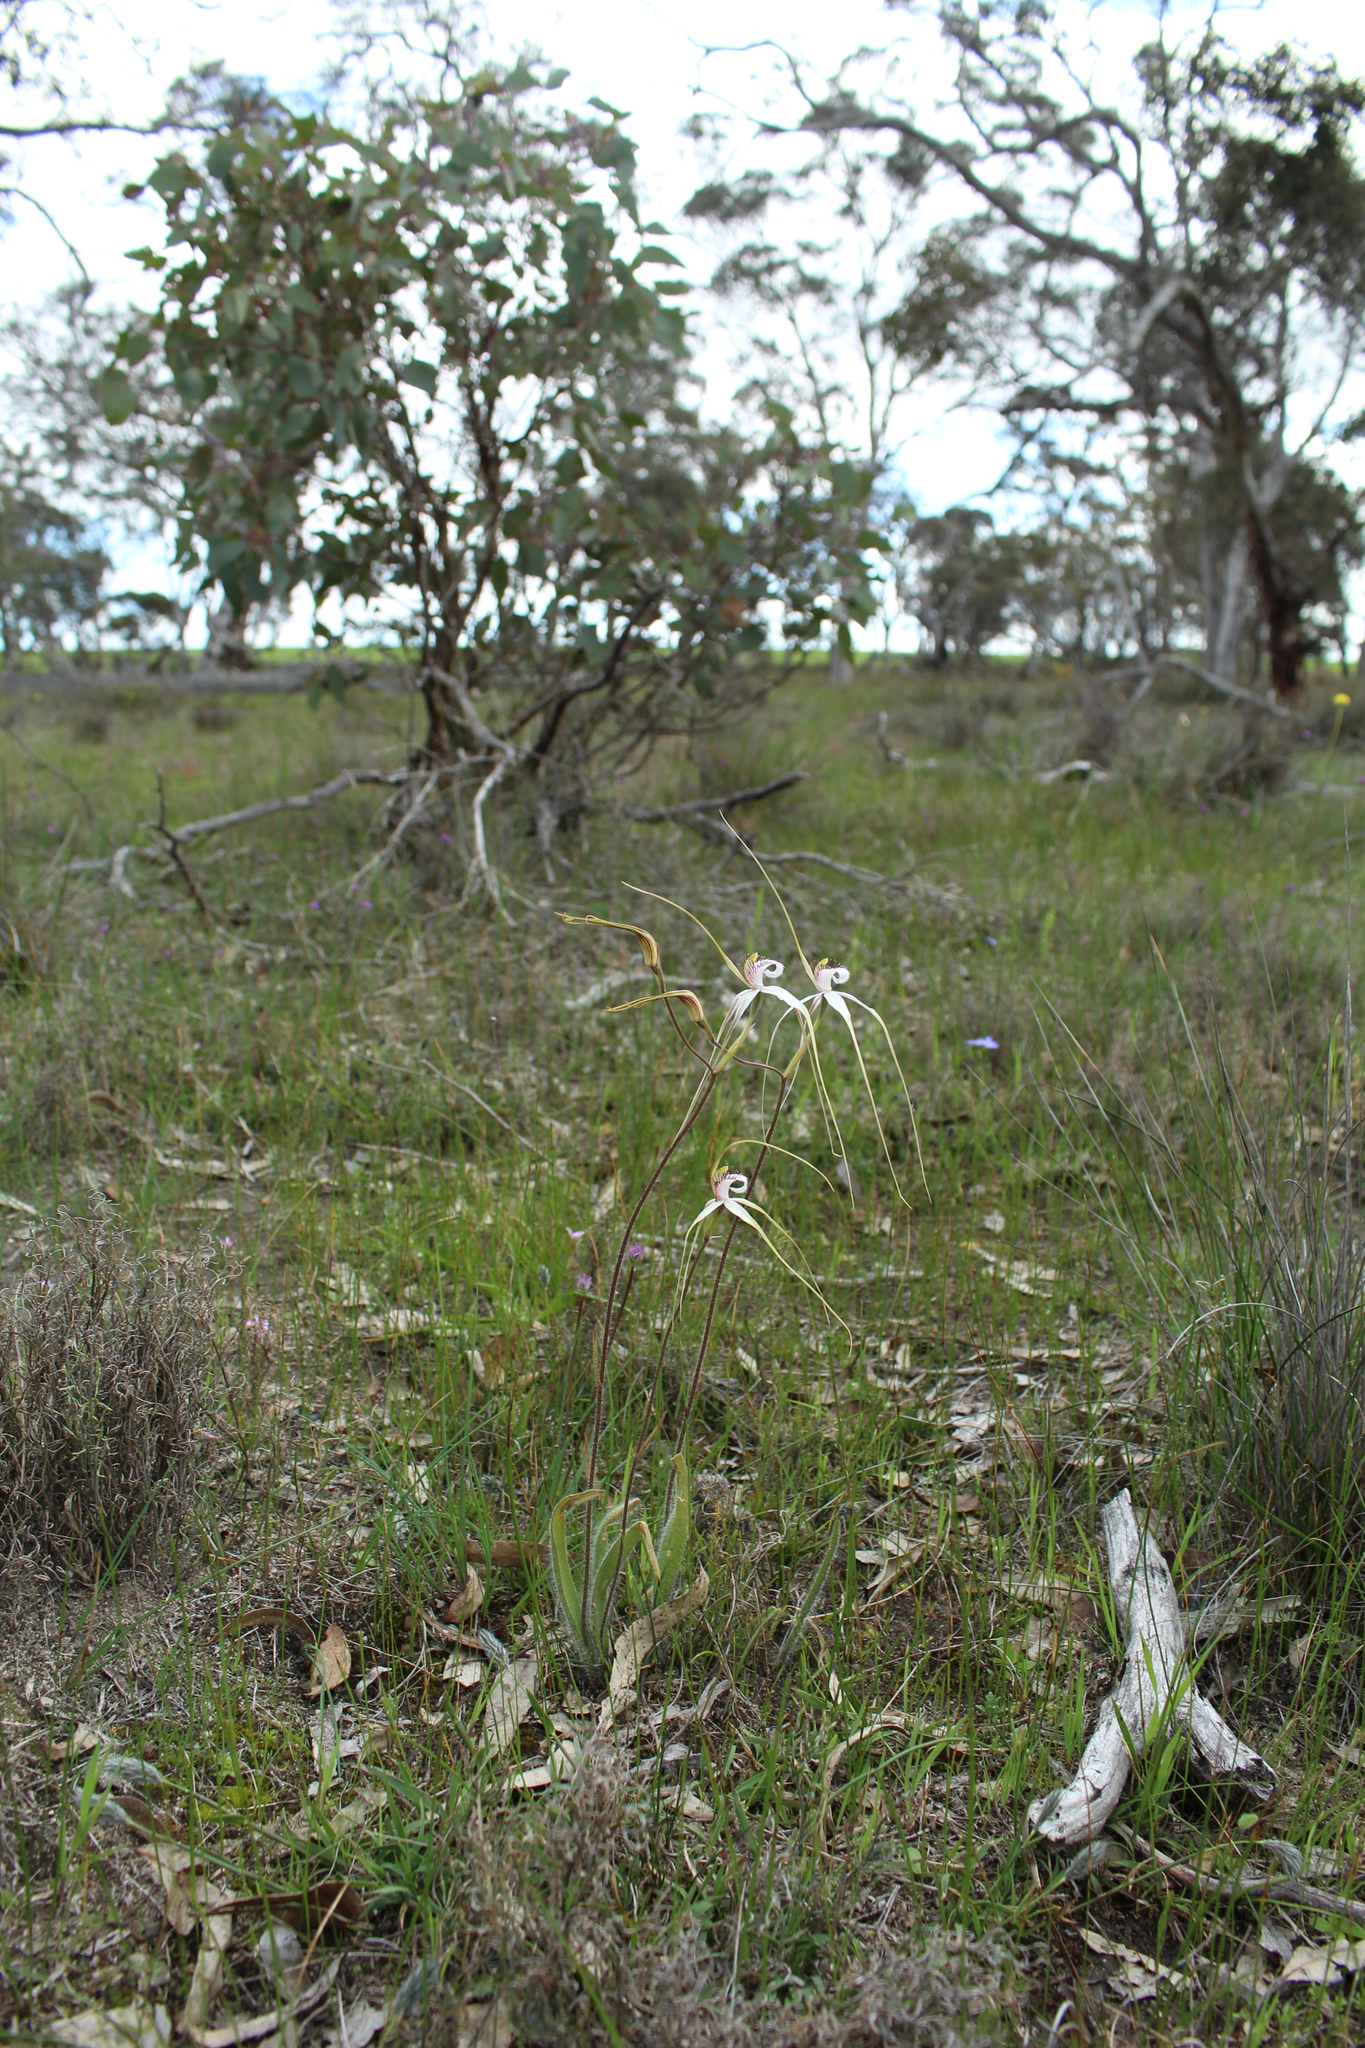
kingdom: Plantae
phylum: Tracheophyta
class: Liliopsida
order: Asparagales
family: Orchidaceae
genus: Caladenia
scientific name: Caladenia longicauda
